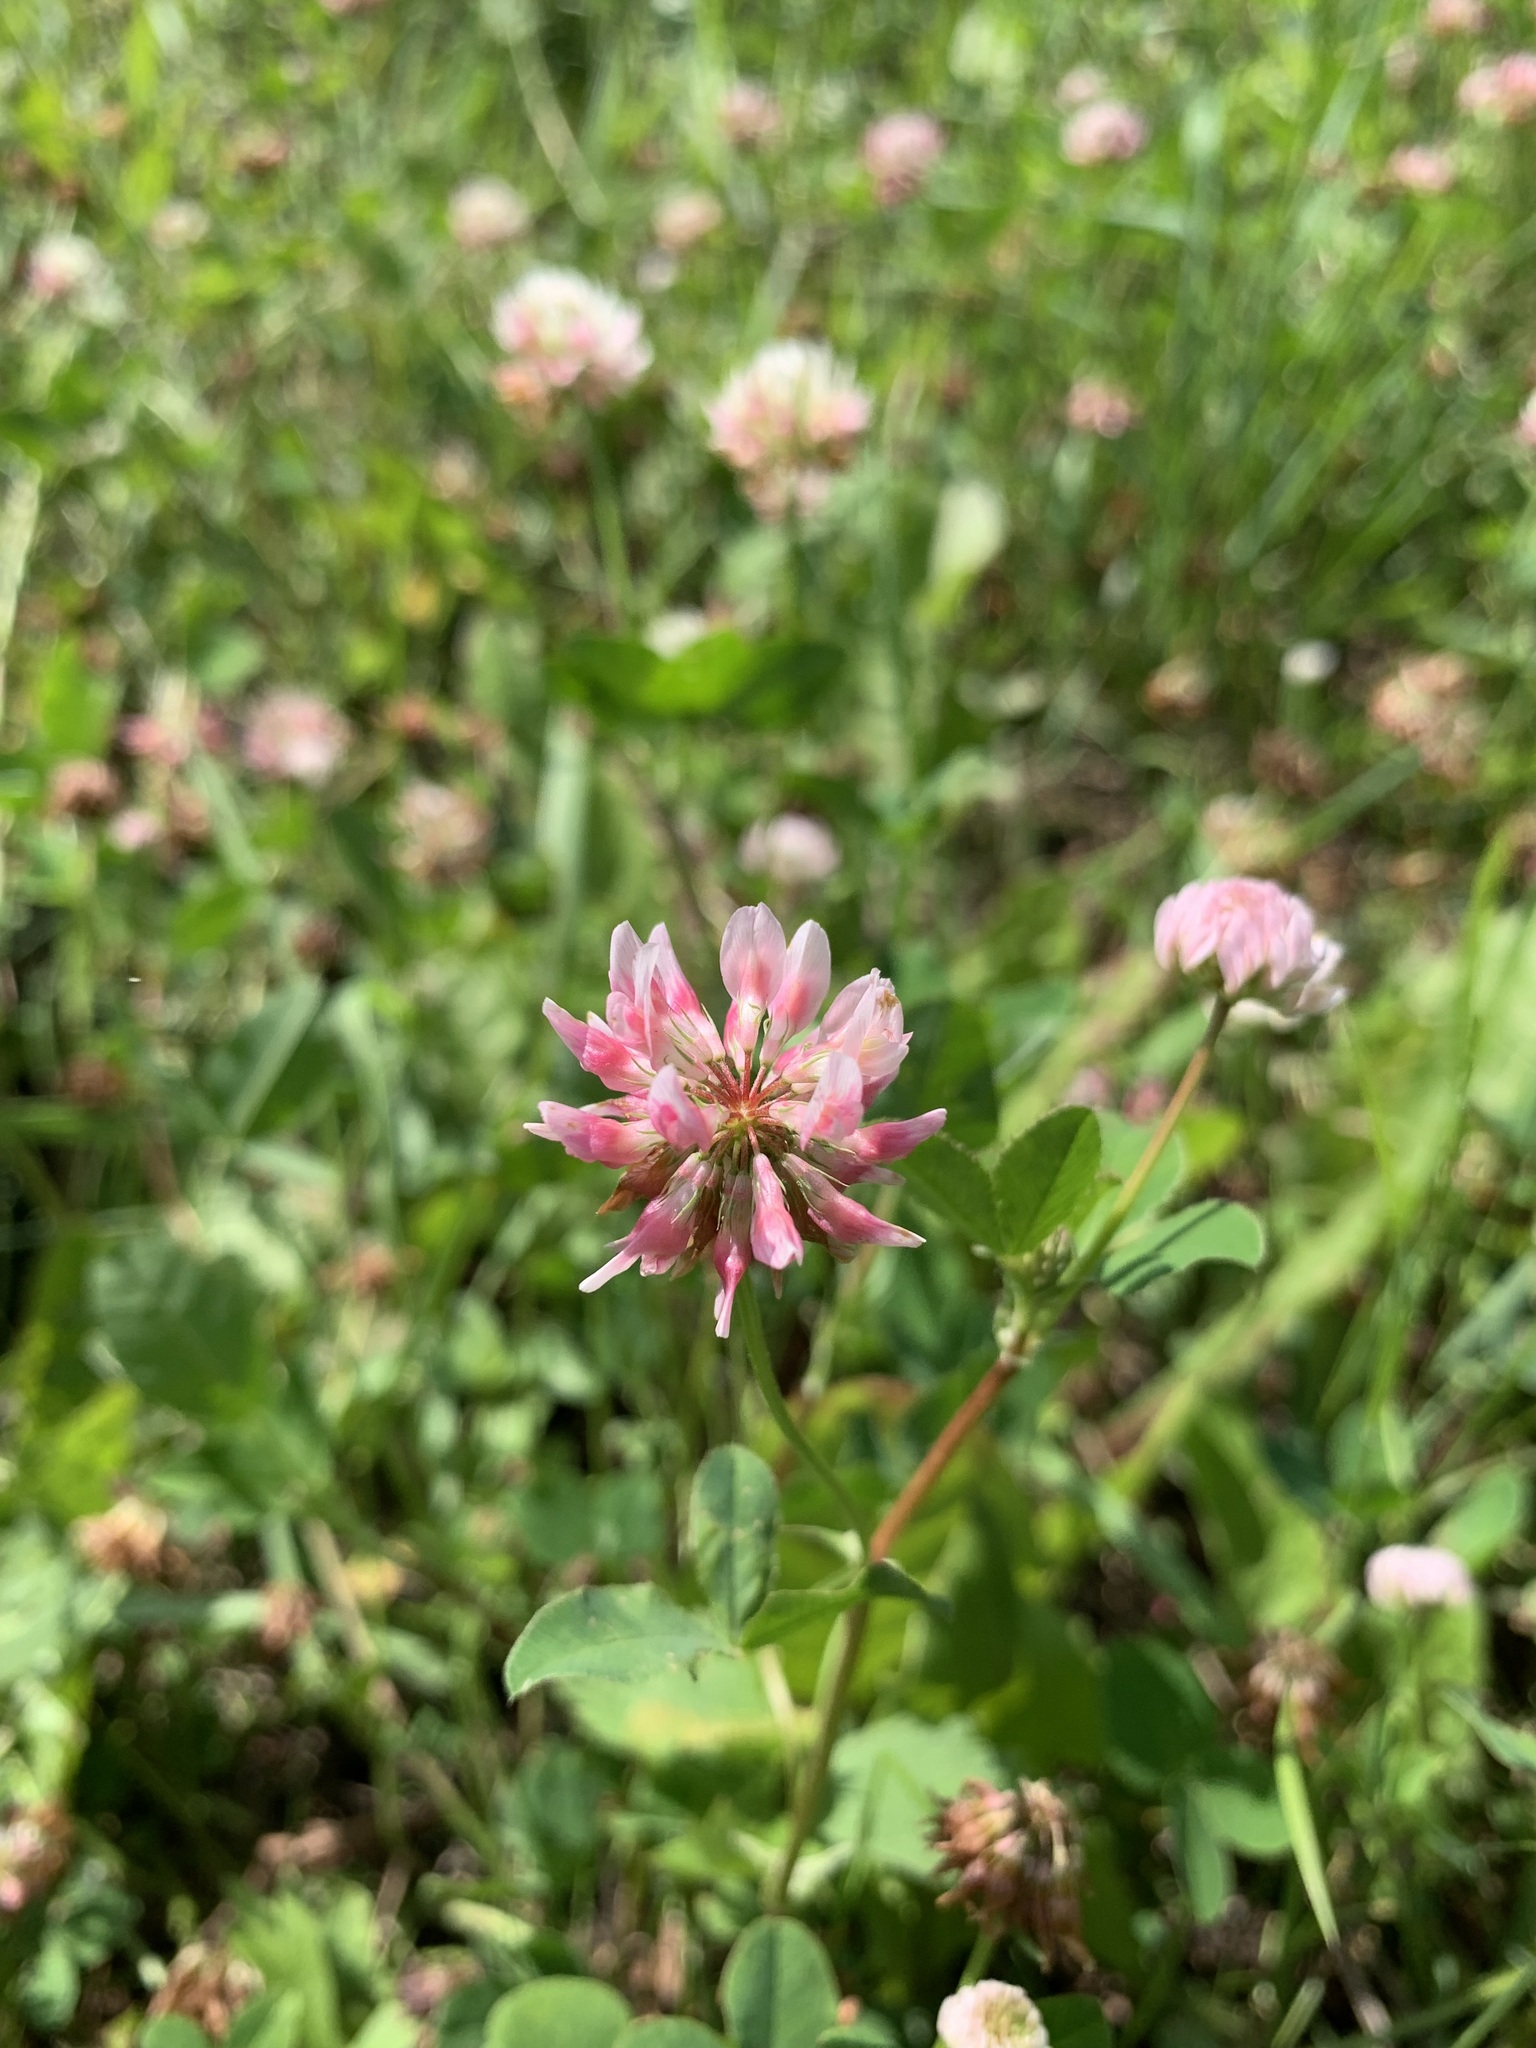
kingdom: Plantae
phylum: Tracheophyta
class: Magnoliopsida
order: Fabales
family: Fabaceae
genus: Trifolium
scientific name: Trifolium hybridum
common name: Alsike clover
